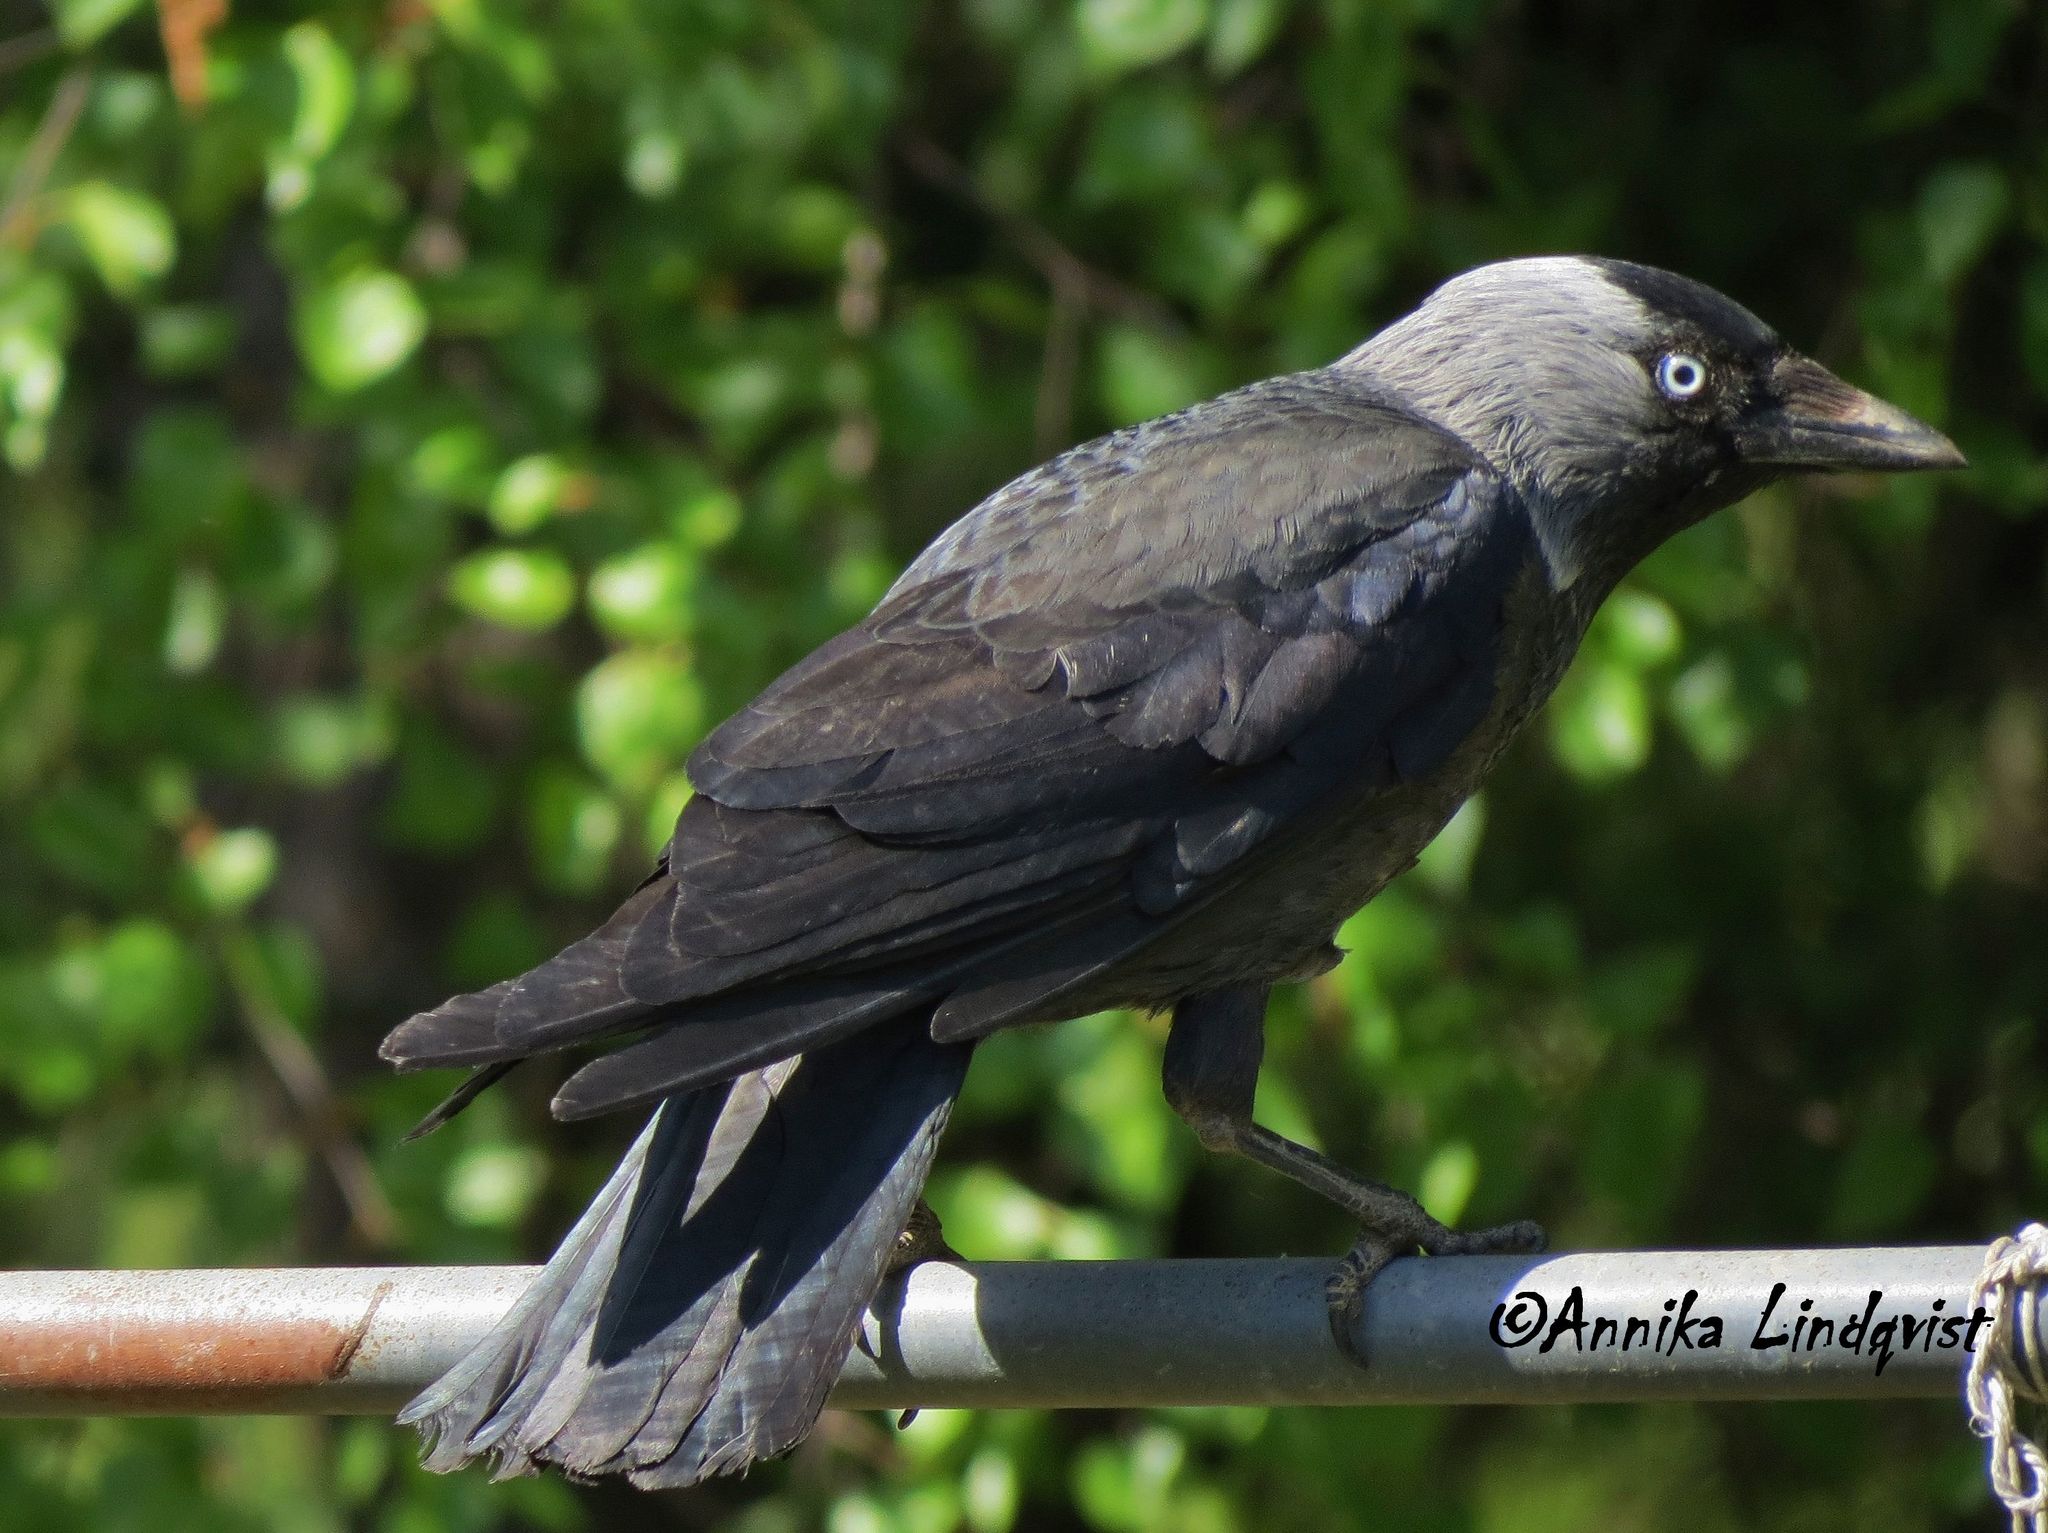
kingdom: Animalia
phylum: Chordata
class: Aves
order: Passeriformes
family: Corvidae
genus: Coloeus
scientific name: Coloeus monedula
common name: Western jackdaw
